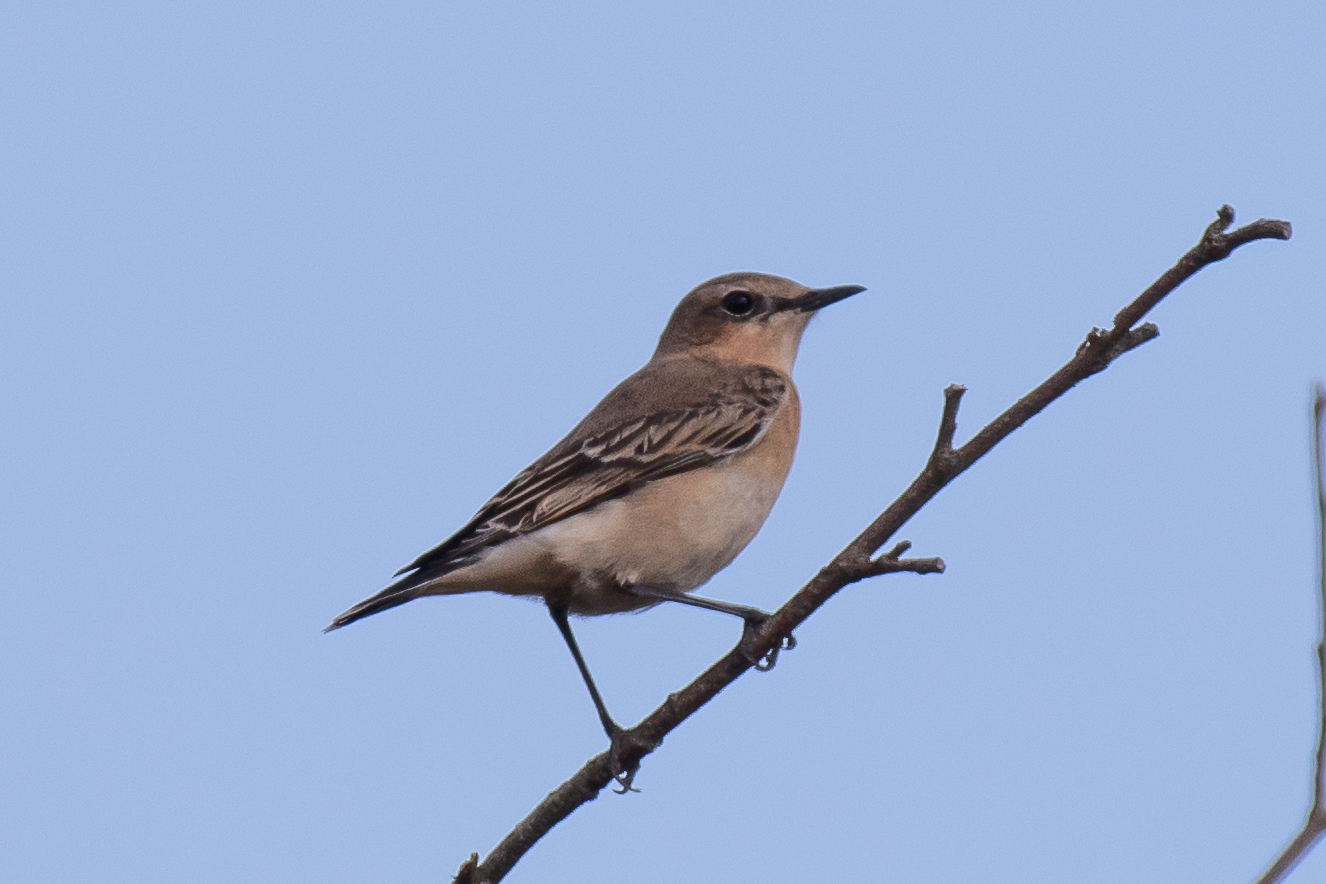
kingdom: Animalia
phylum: Chordata
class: Aves
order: Passeriformes
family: Muscicapidae
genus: Oenanthe
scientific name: Oenanthe oenanthe
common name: Northern wheatear
